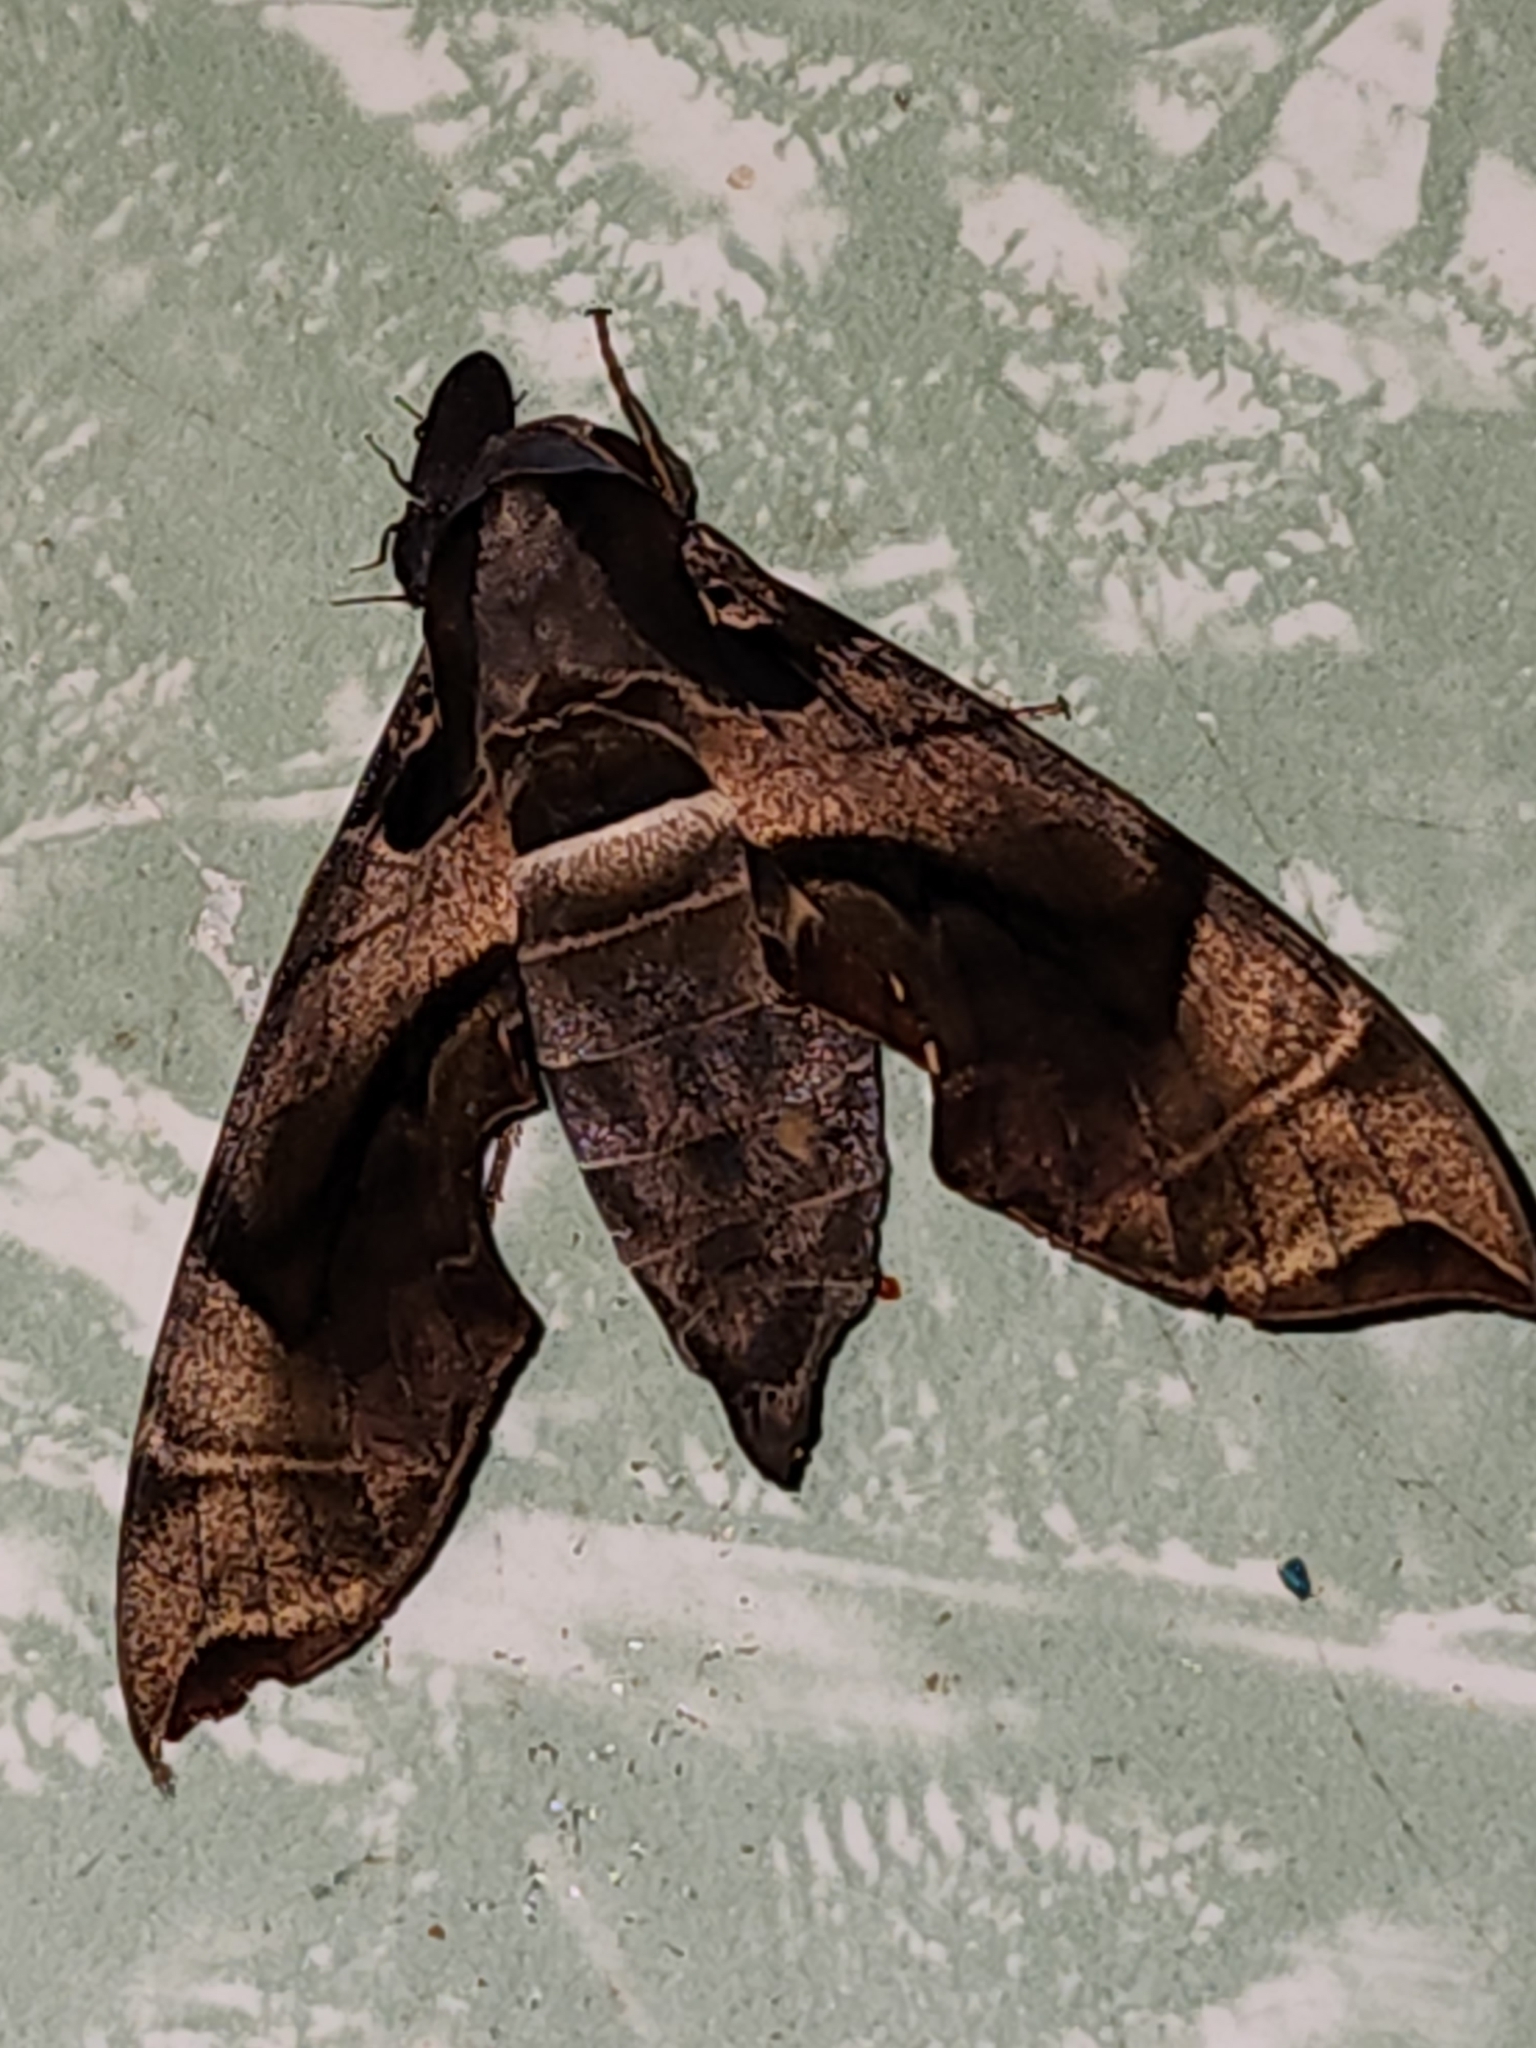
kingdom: Animalia
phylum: Arthropoda
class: Insecta
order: Lepidoptera
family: Sphingidae
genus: Daphnis
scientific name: Daphnis placida
